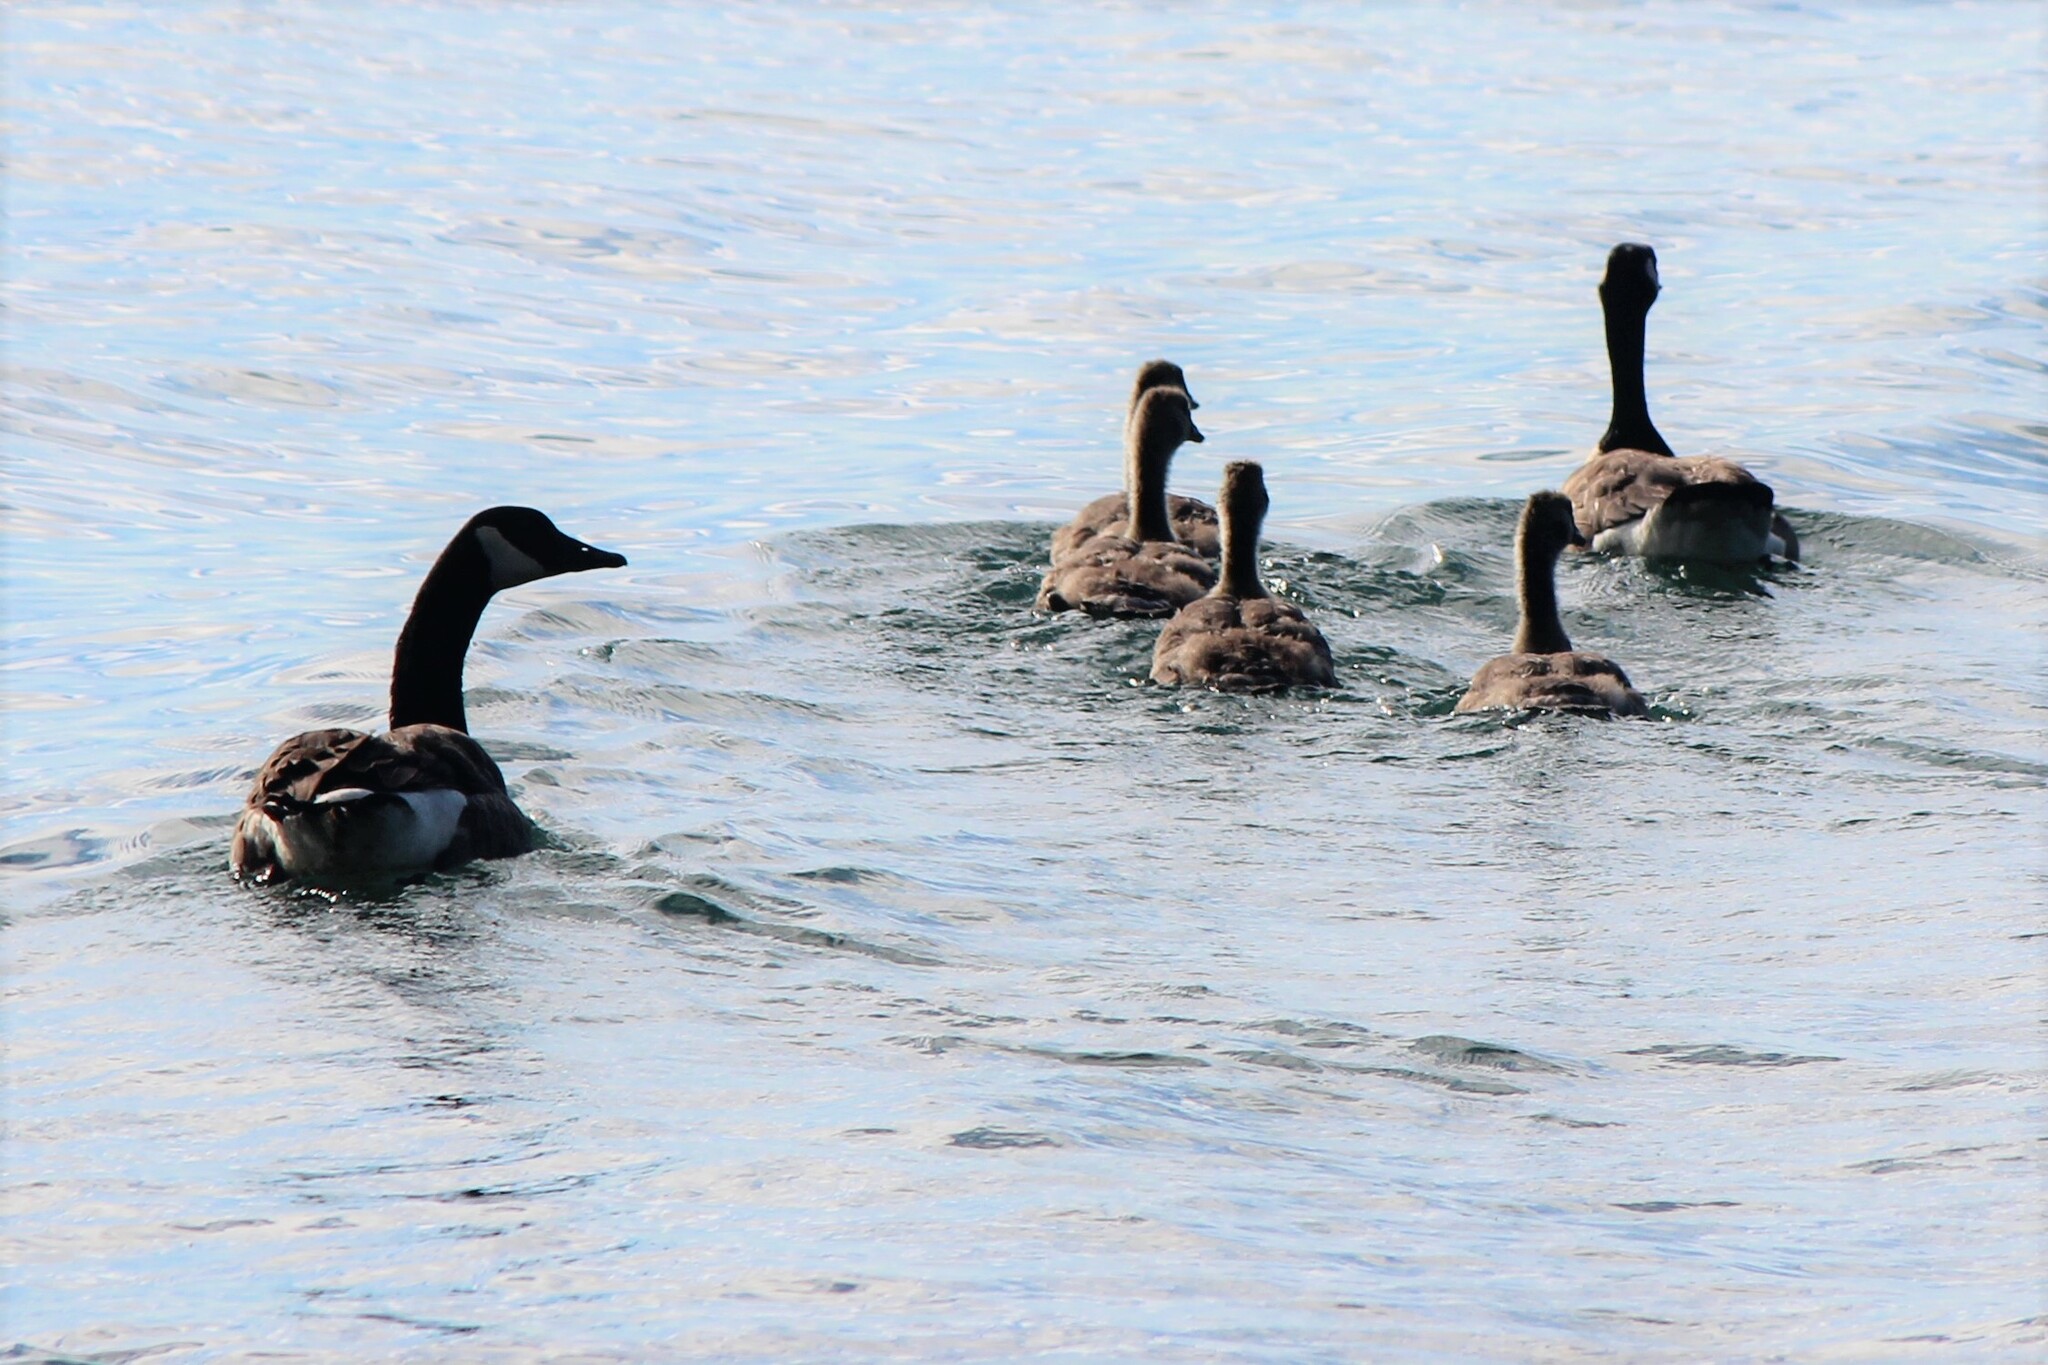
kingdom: Animalia
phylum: Chordata
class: Aves
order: Anseriformes
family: Anatidae
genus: Branta
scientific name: Branta canadensis
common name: Canada goose
